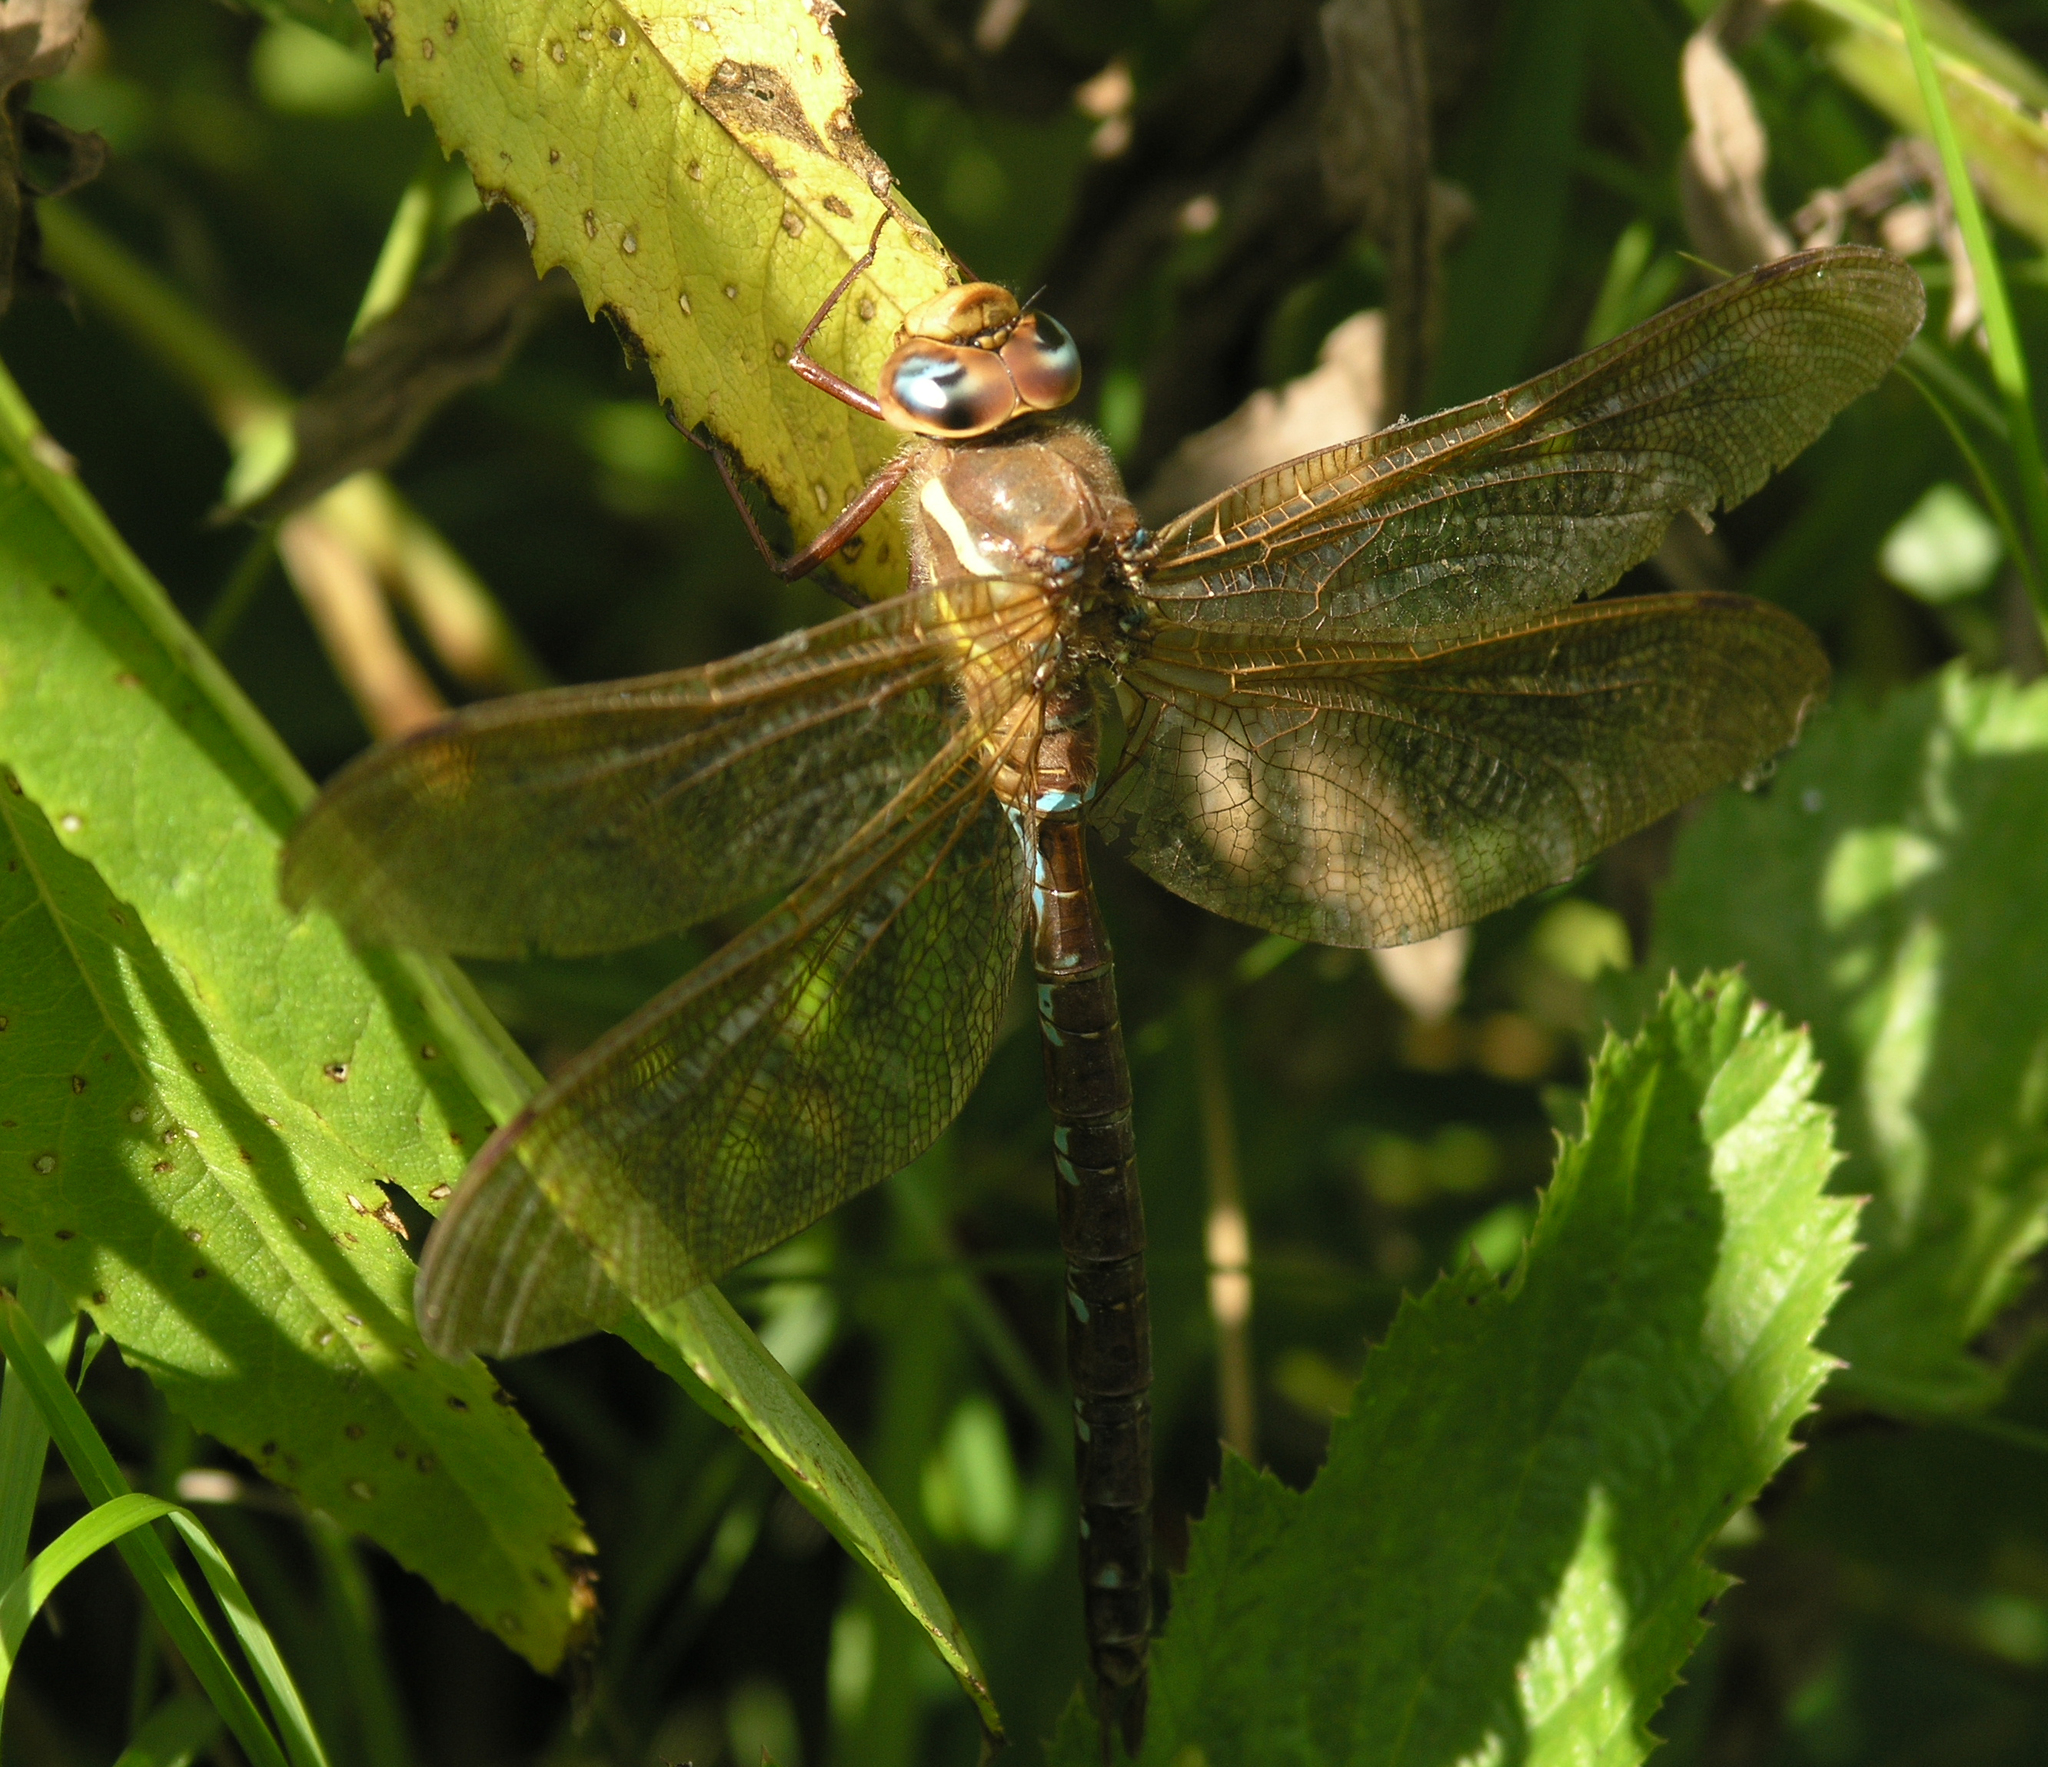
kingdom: Animalia
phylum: Arthropoda
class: Insecta
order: Odonata
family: Aeshnidae
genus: Aeshna
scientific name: Aeshna grandis
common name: Brown hawker
